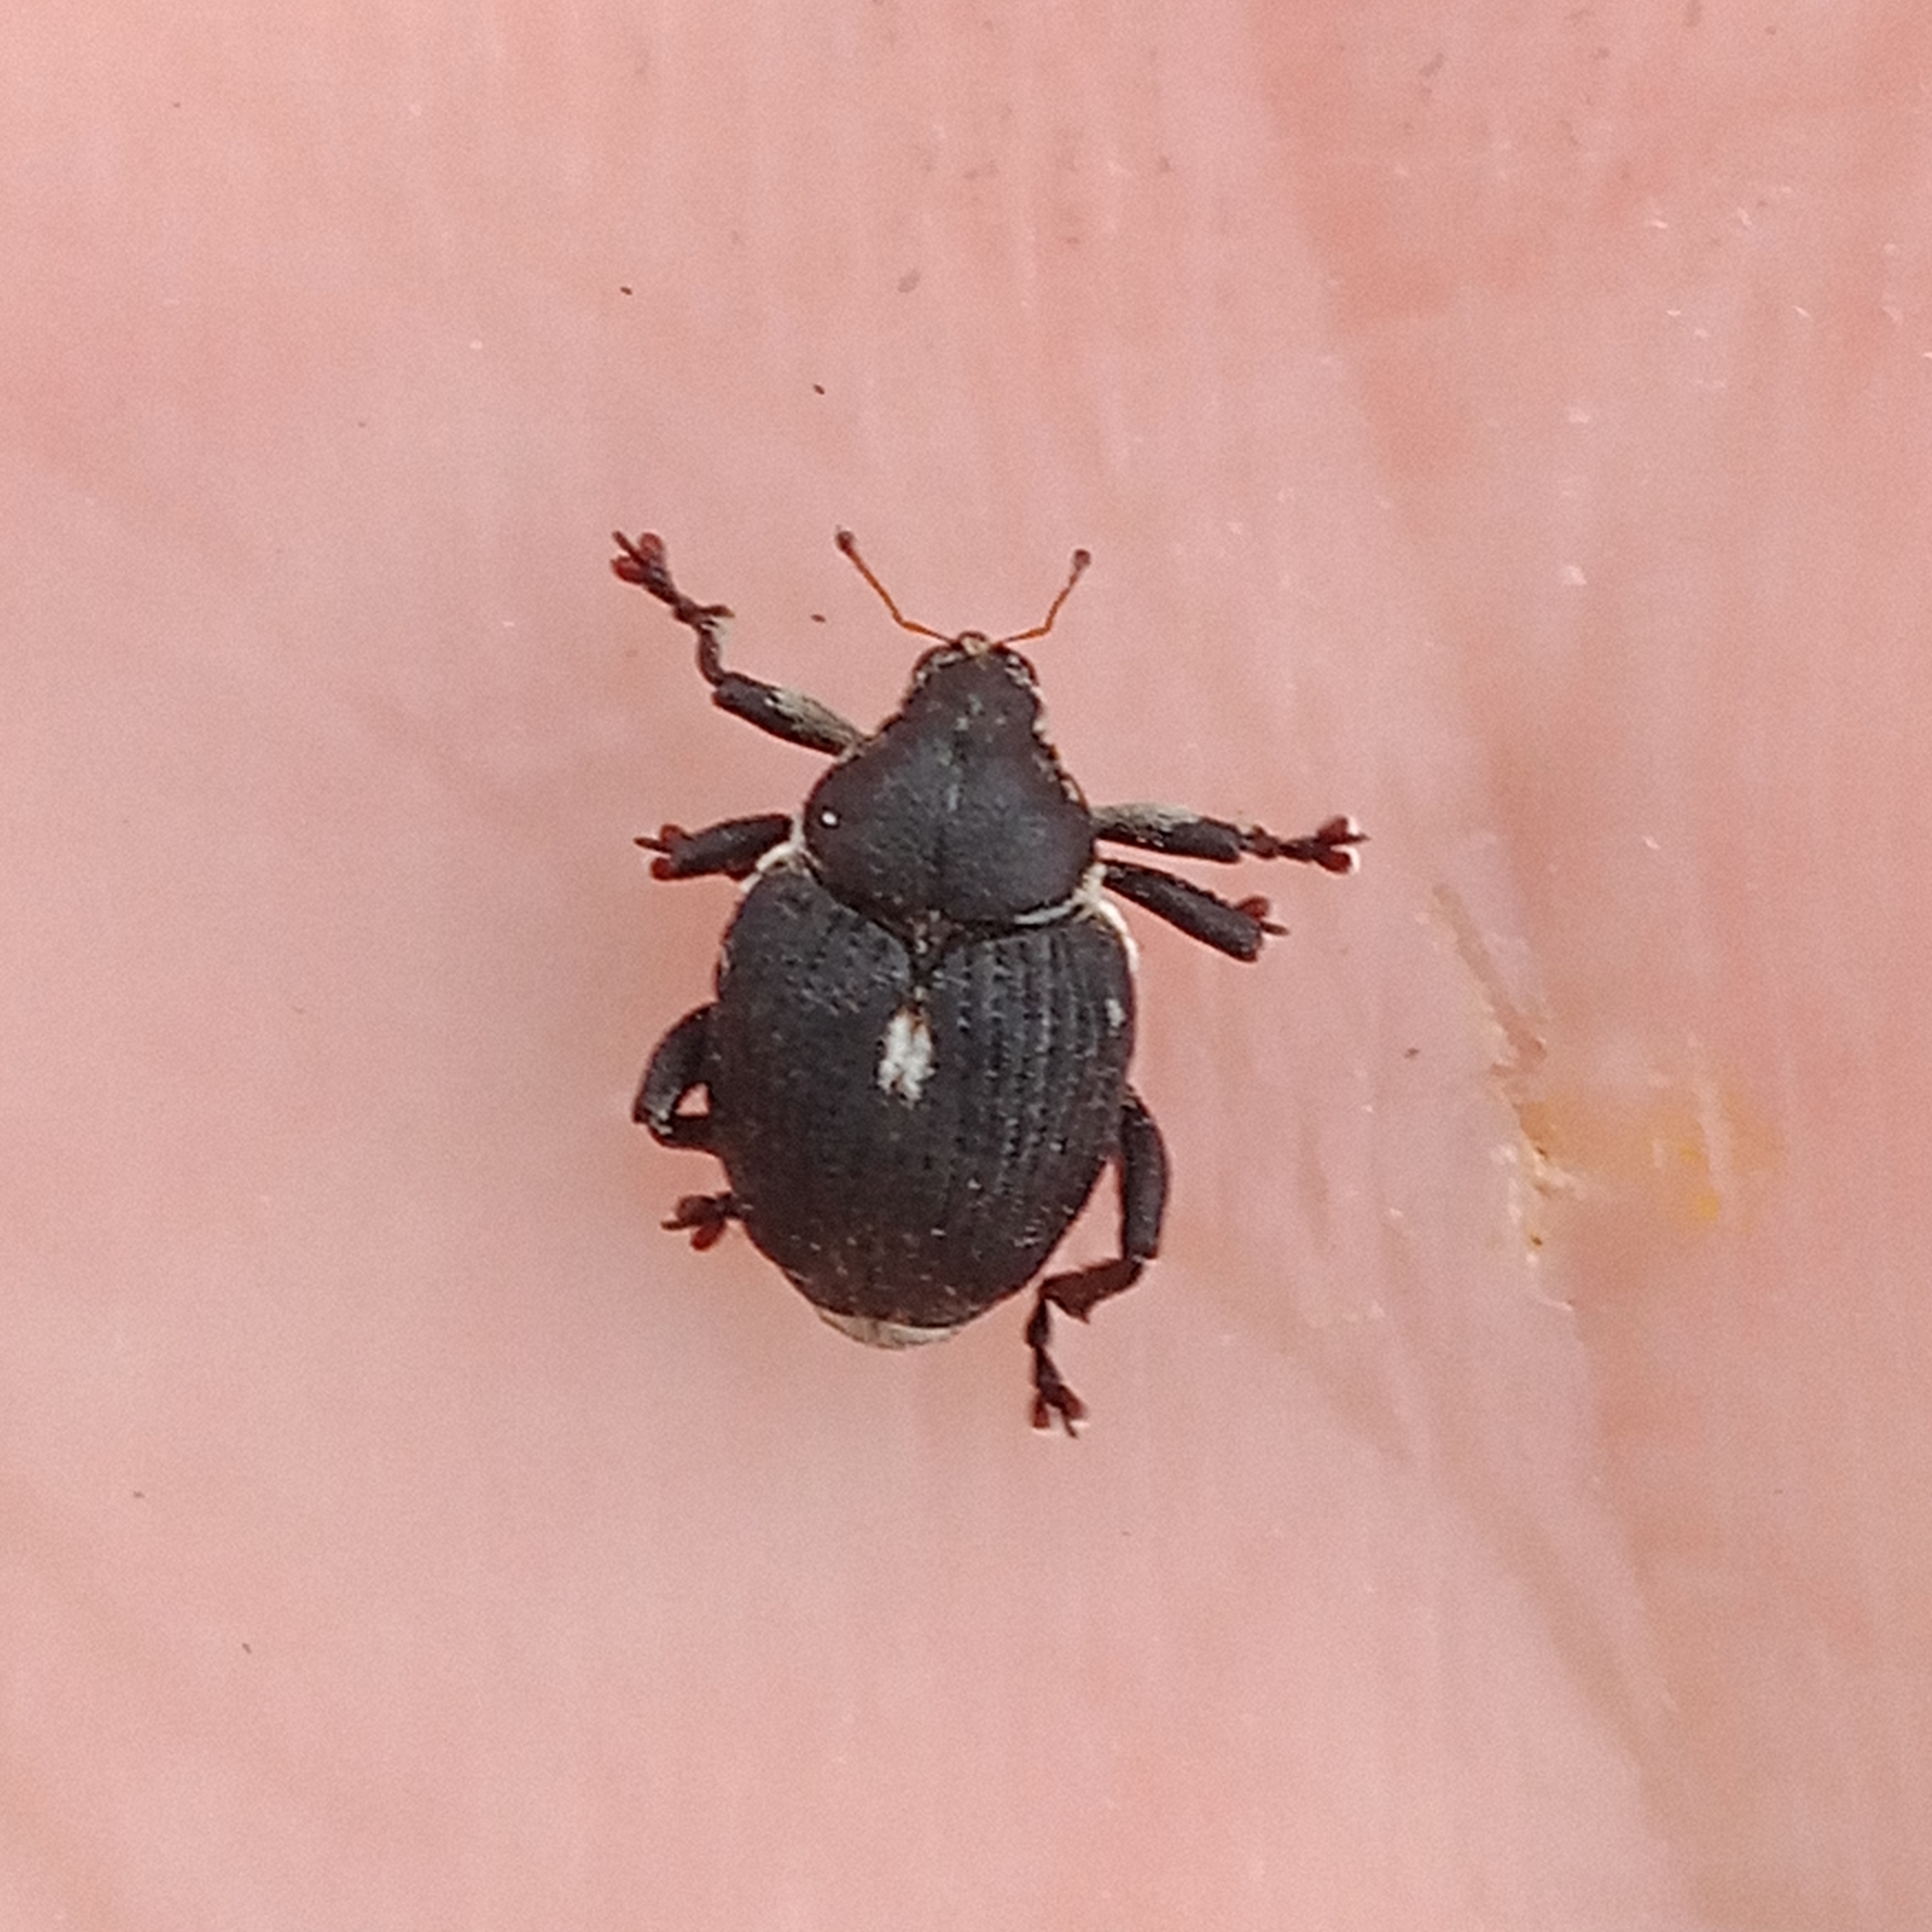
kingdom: Animalia
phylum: Arthropoda
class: Insecta
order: Coleoptera
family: Curculionidae
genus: Mononychus
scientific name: Mononychus punctumalbum
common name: Iris weevil
